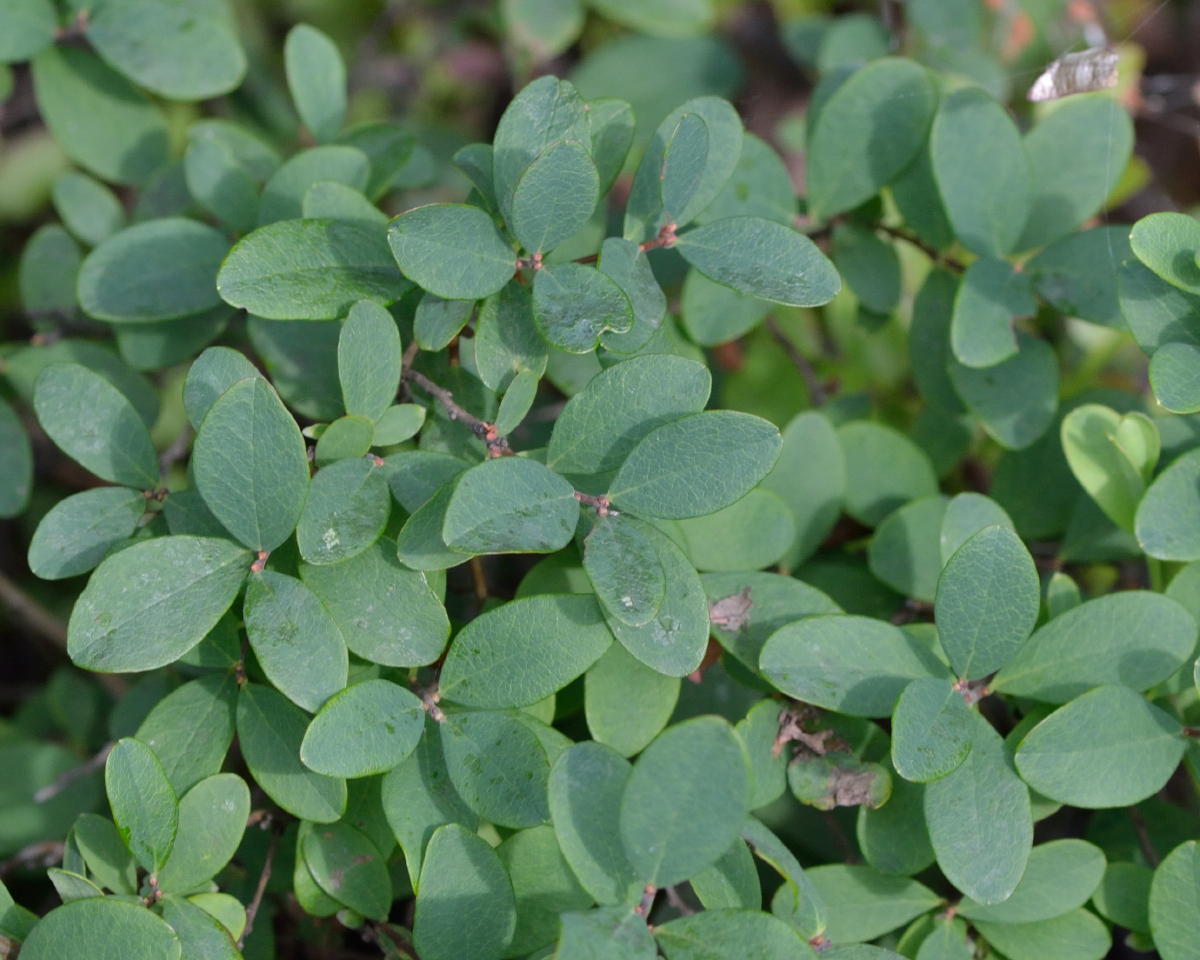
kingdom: Plantae
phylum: Tracheophyta
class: Magnoliopsida
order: Ericales
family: Ericaceae
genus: Vaccinium
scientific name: Vaccinium uliginosum
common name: Bog bilberry
